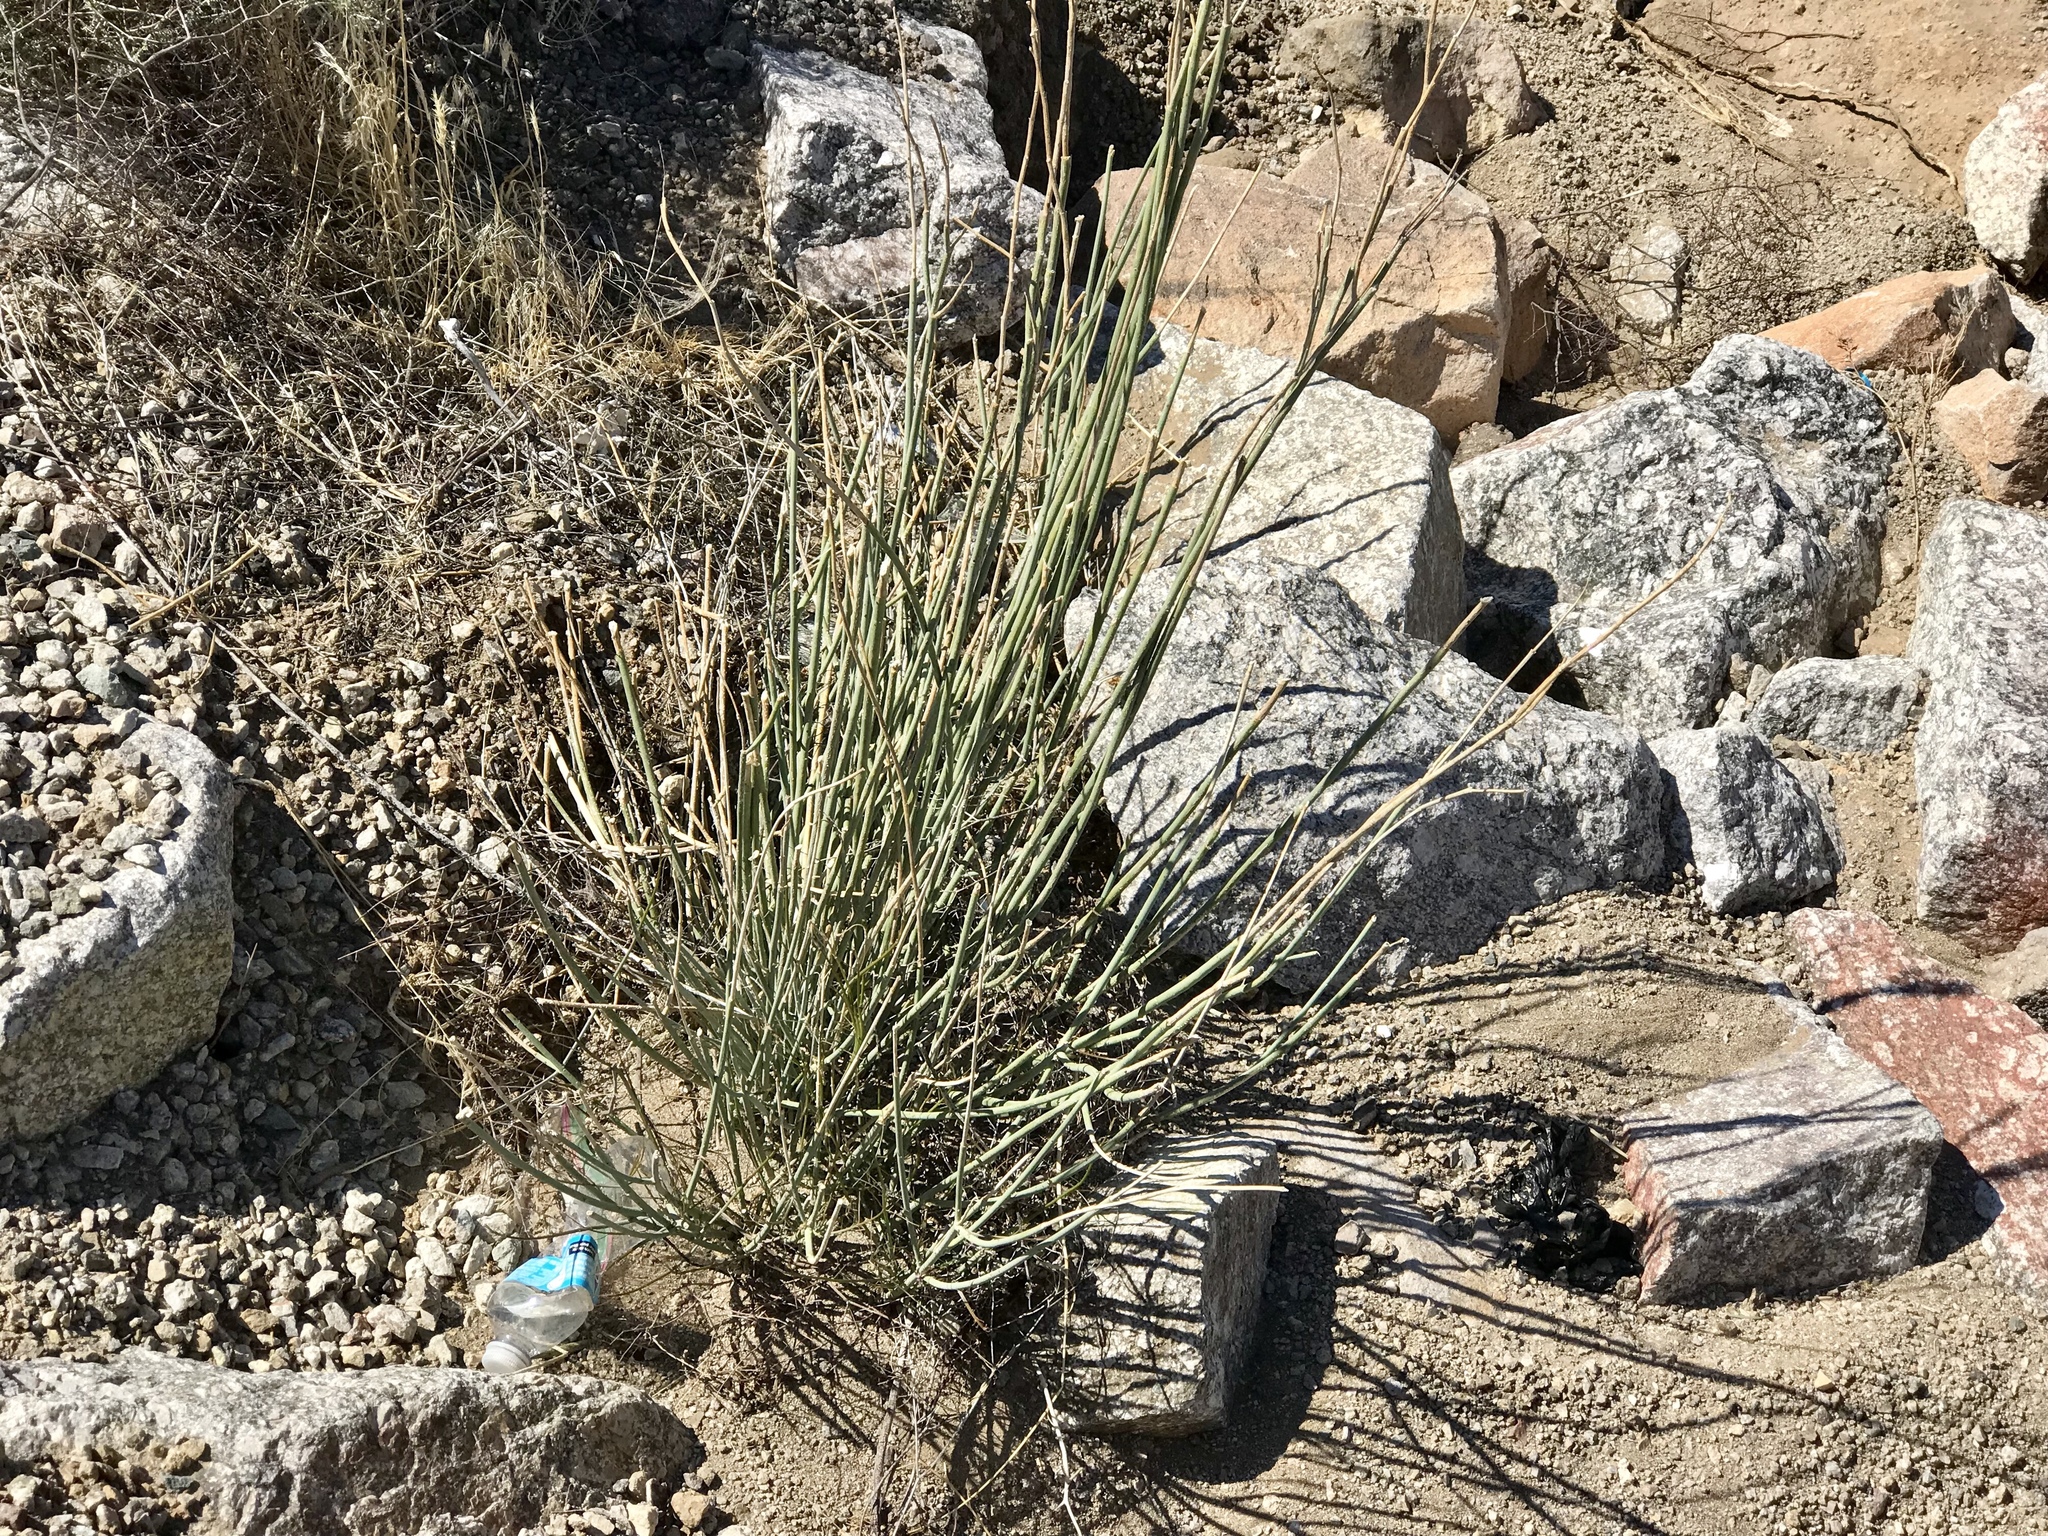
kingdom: Plantae
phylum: Tracheophyta
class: Gnetopsida
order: Ephedrales
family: Ephedraceae
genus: Ephedra
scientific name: Ephedra viridis
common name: Green ephedra
